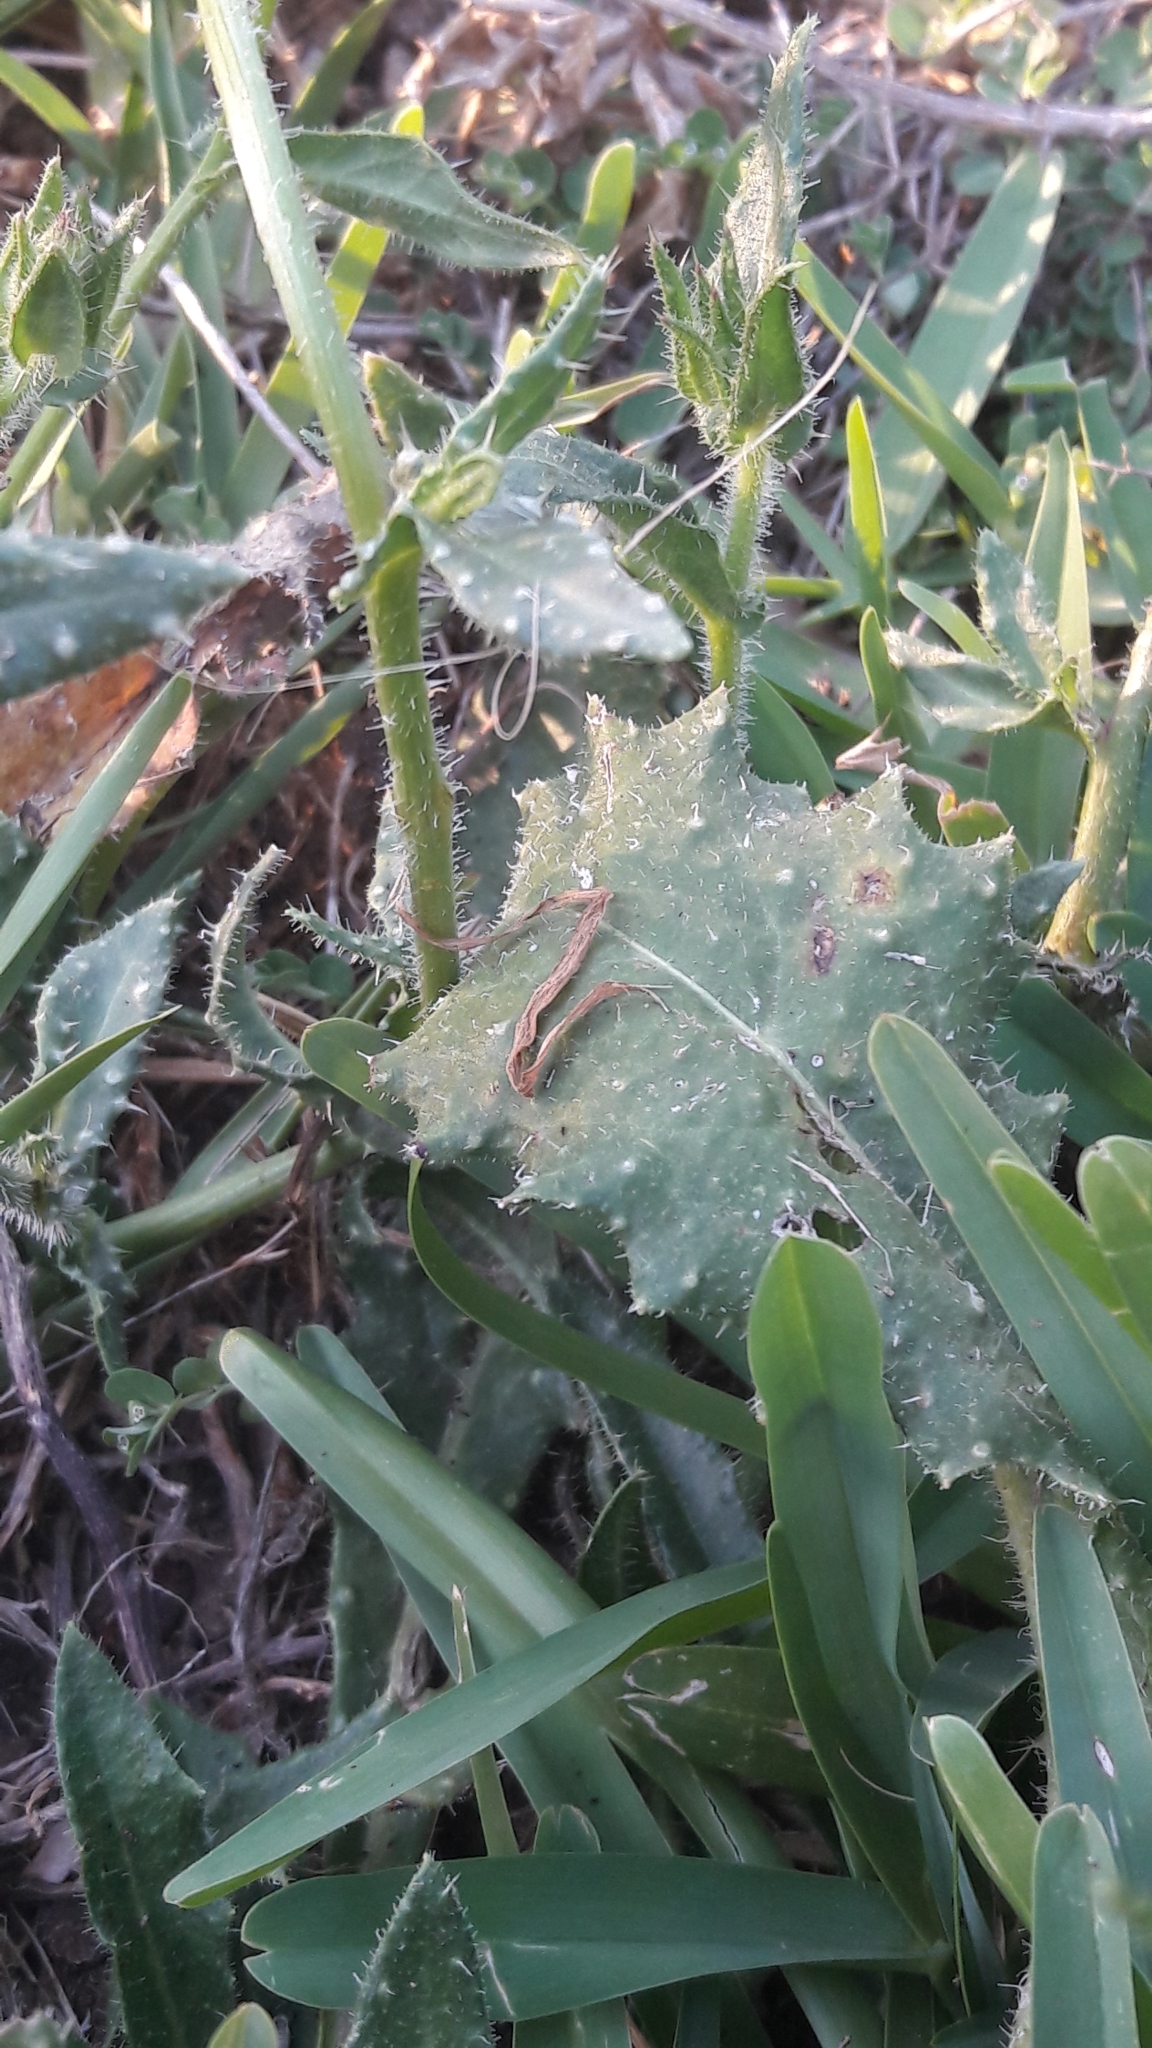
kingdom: Plantae
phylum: Tracheophyta
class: Magnoliopsida
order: Asterales
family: Asteraceae
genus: Helminthotheca
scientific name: Helminthotheca echioides
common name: Ox-tongue
